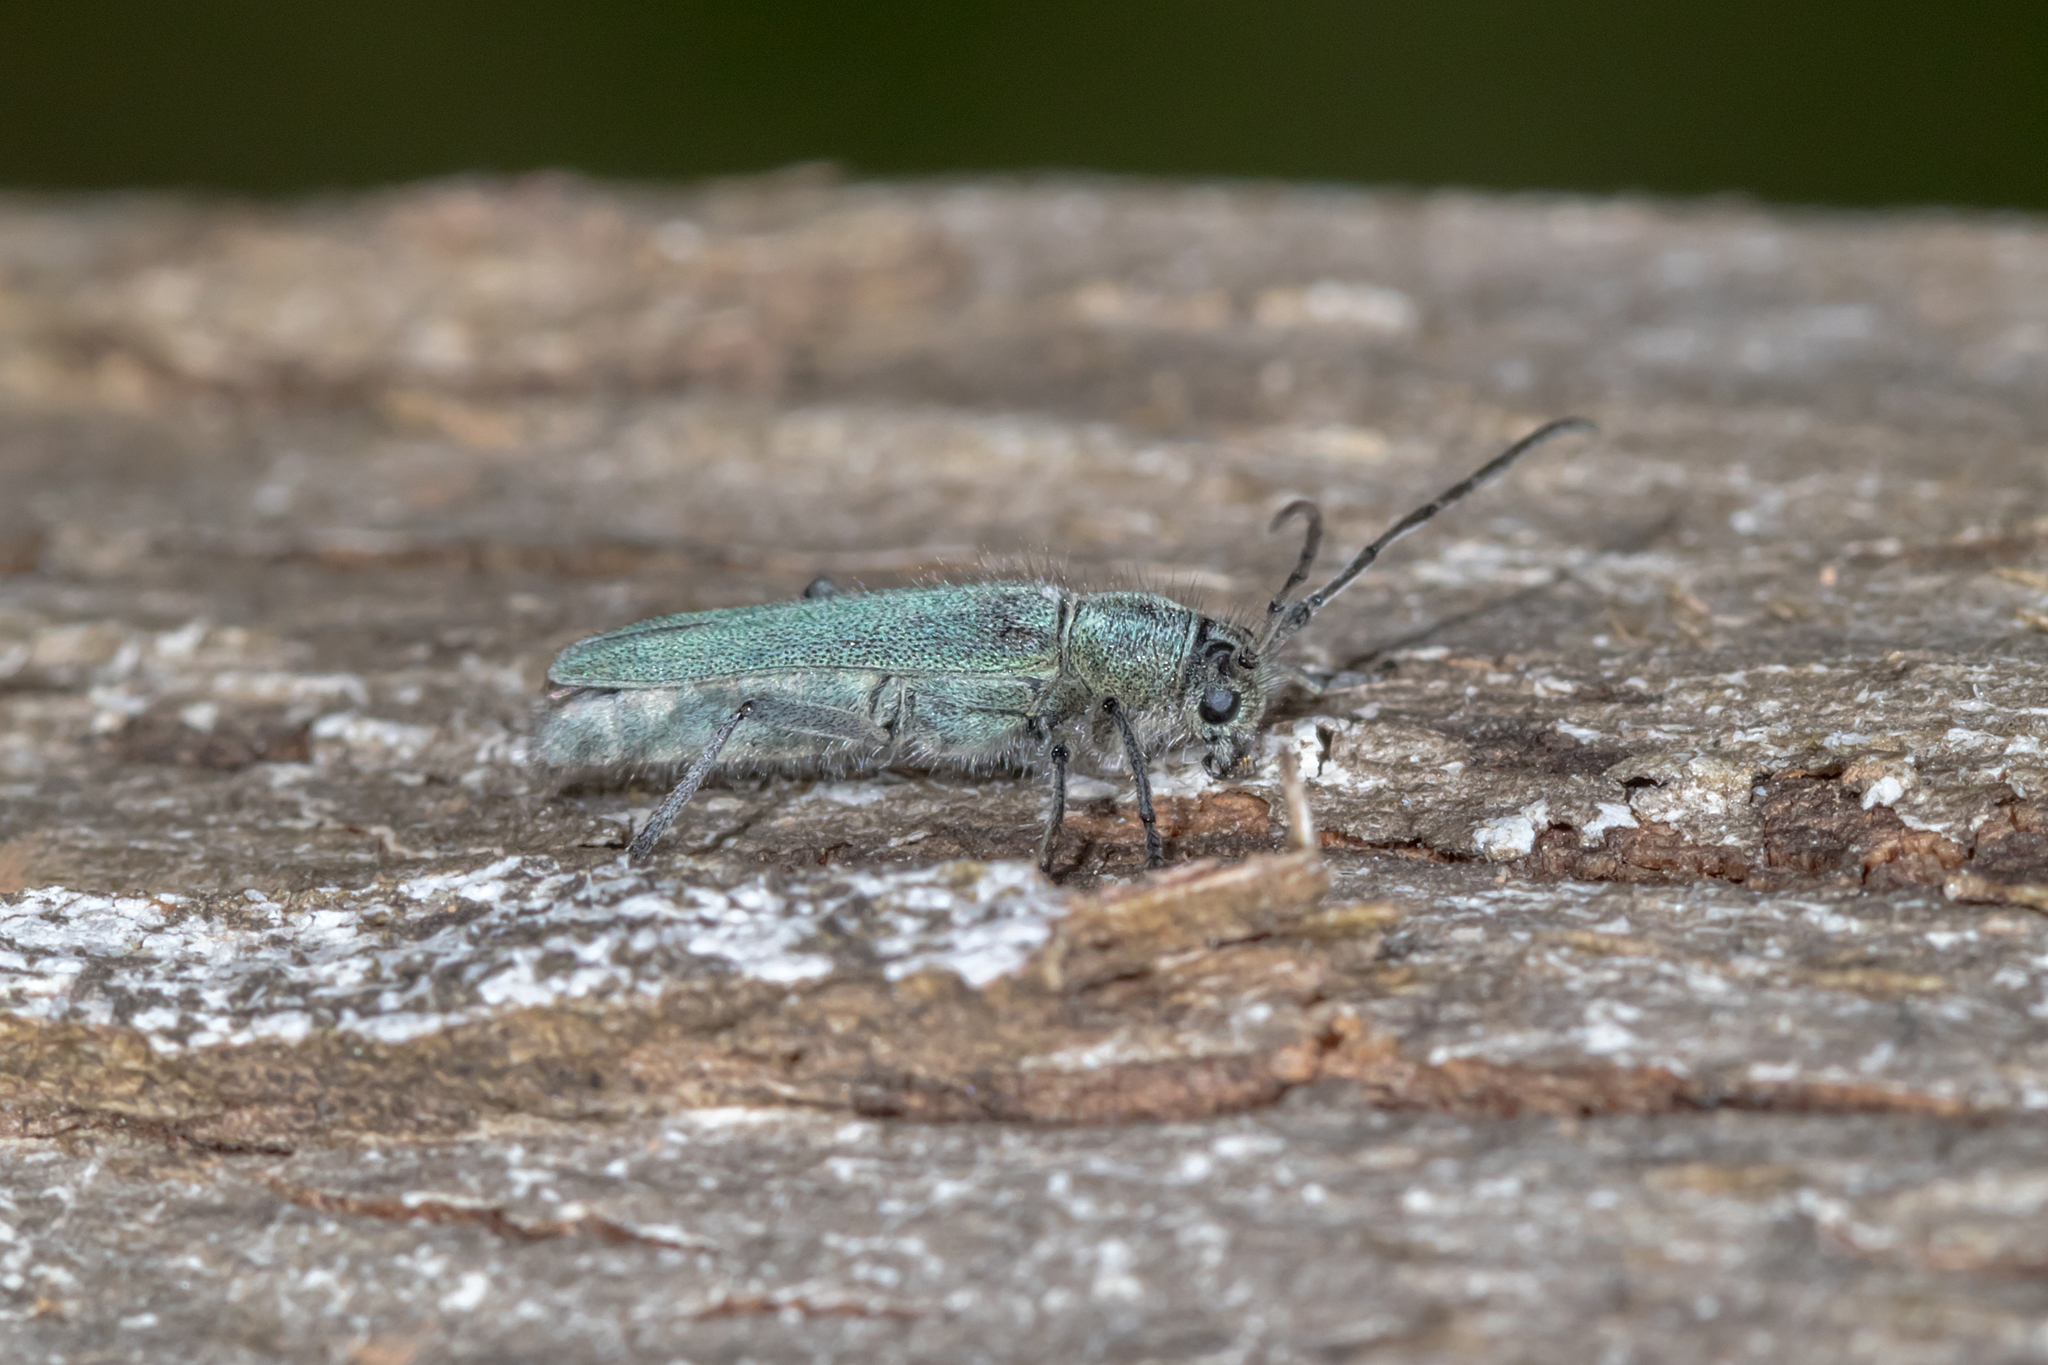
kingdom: Animalia
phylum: Arthropoda
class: Insecta
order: Coleoptera
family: Cerambycidae
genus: Phytoecia
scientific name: Phytoecia coerulescens
